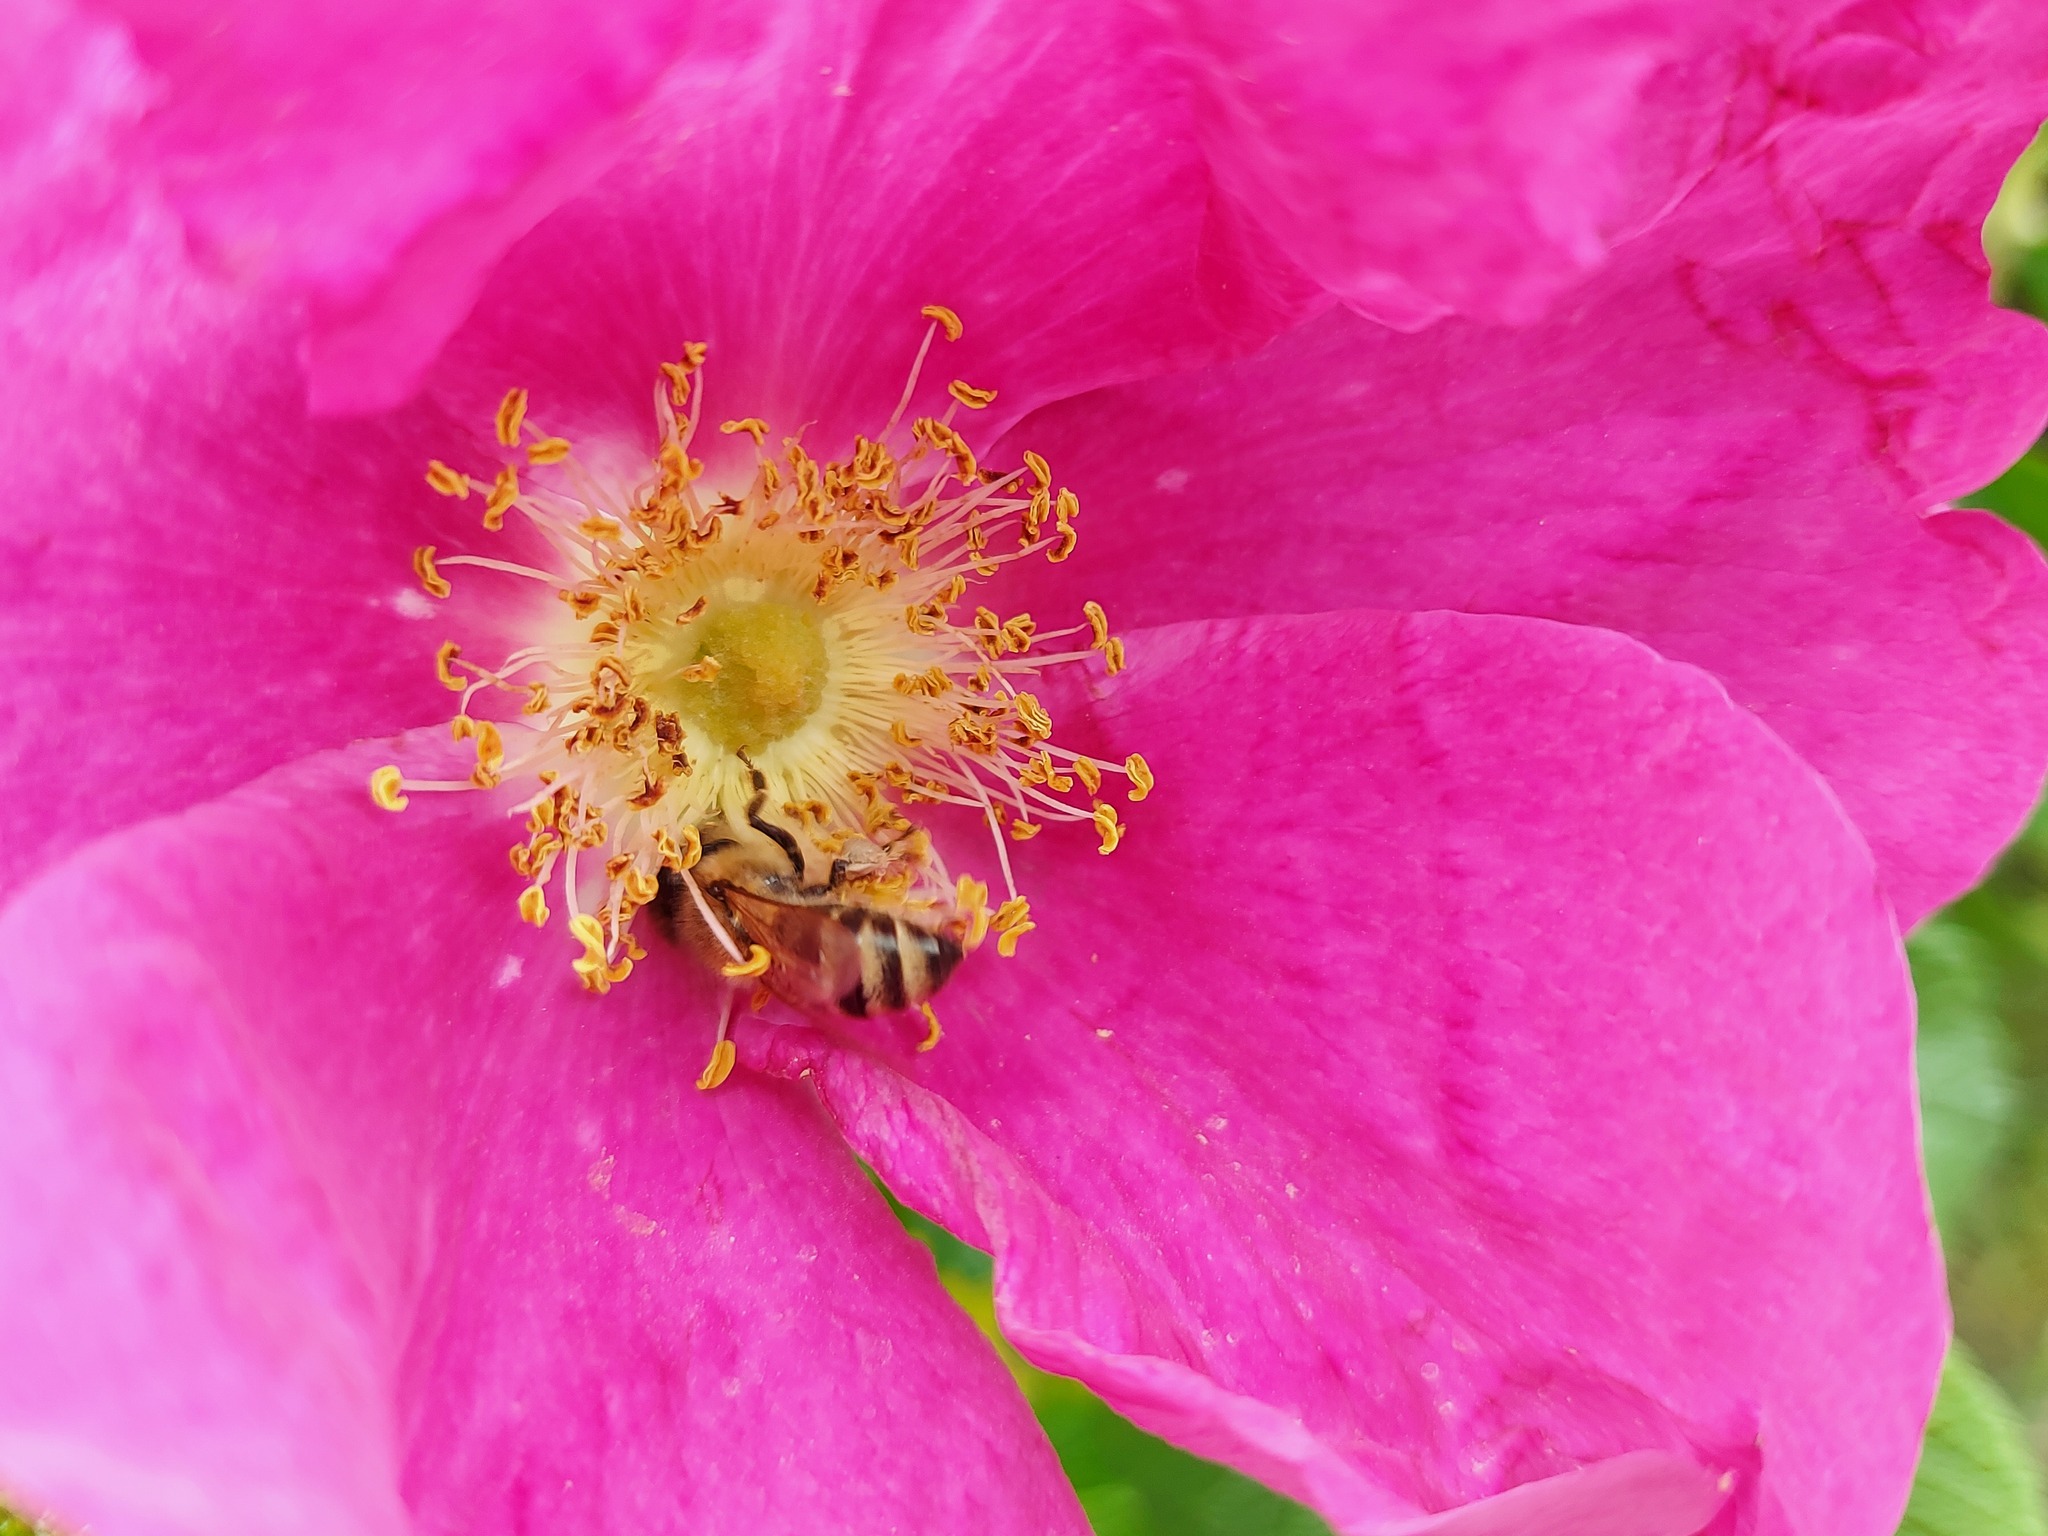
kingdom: Animalia
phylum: Arthropoda
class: Insecta
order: Hymenoptera
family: Apidae
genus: Apis
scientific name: Apis mellifera
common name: Honey bee
